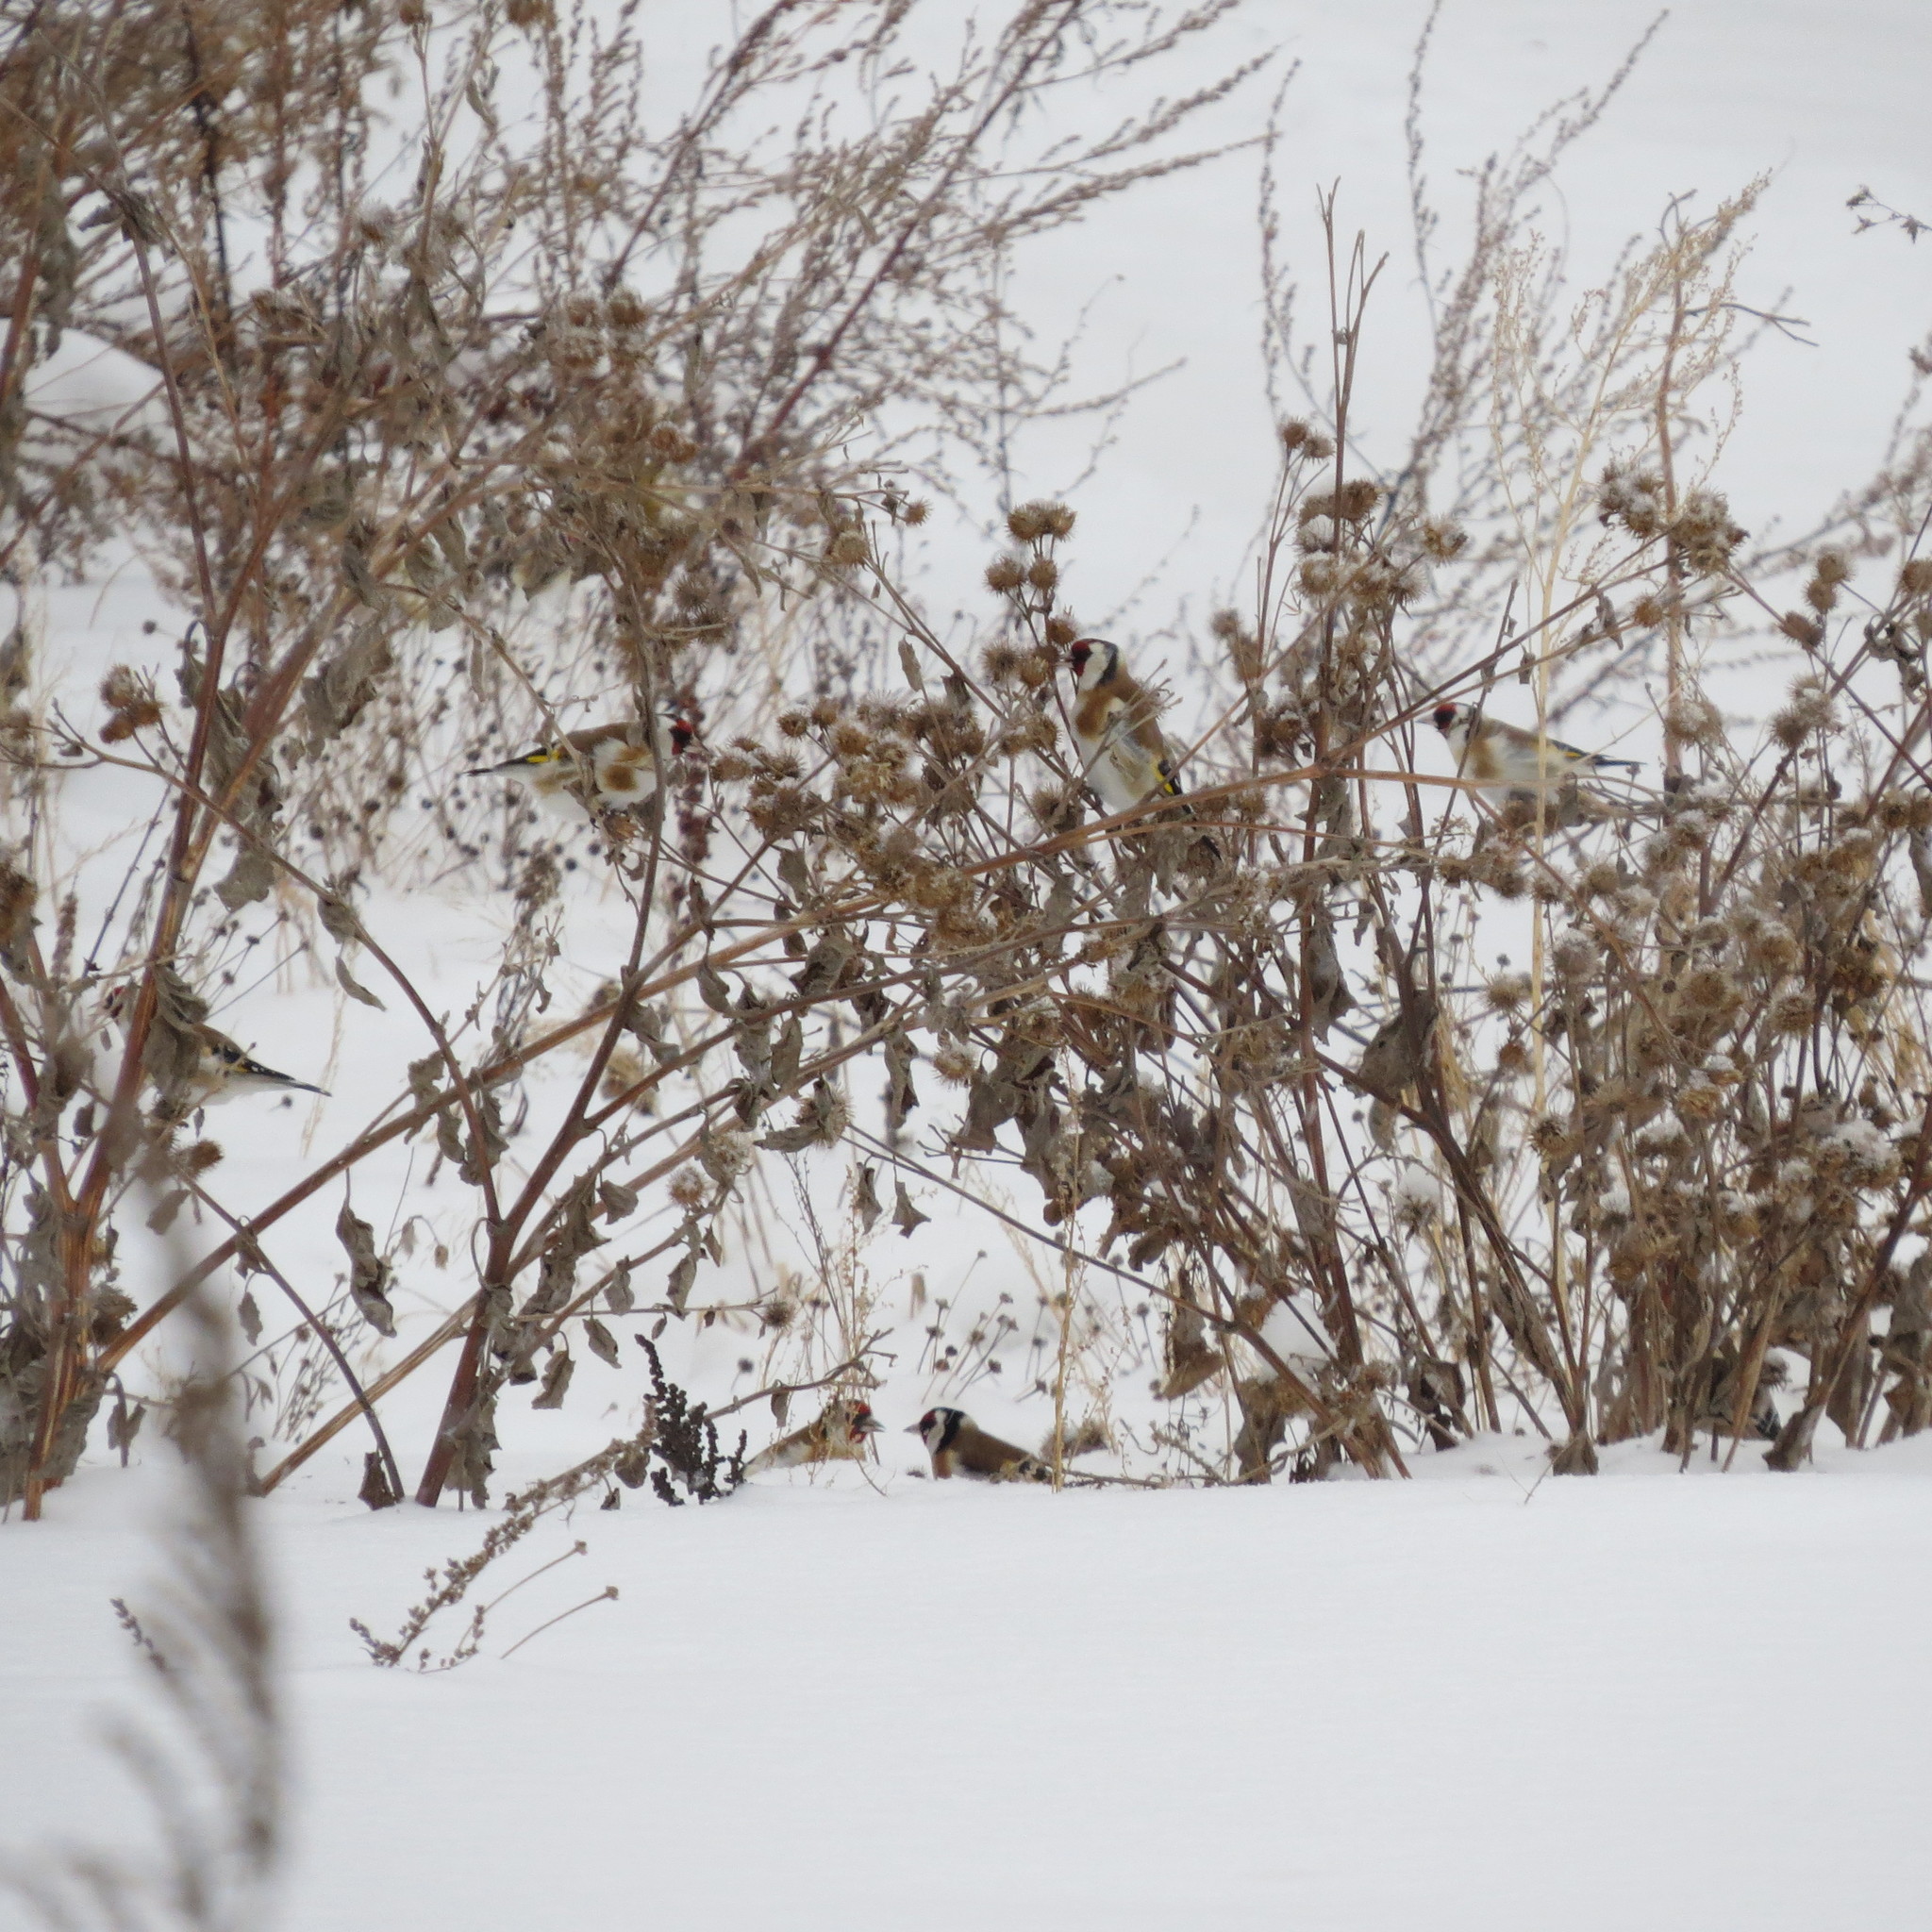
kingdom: Animalia
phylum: Chordata
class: Aves
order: Passeriformes
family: Fringillidae
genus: Carduelis
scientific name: Carduelis carduelis
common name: European goldfinch
